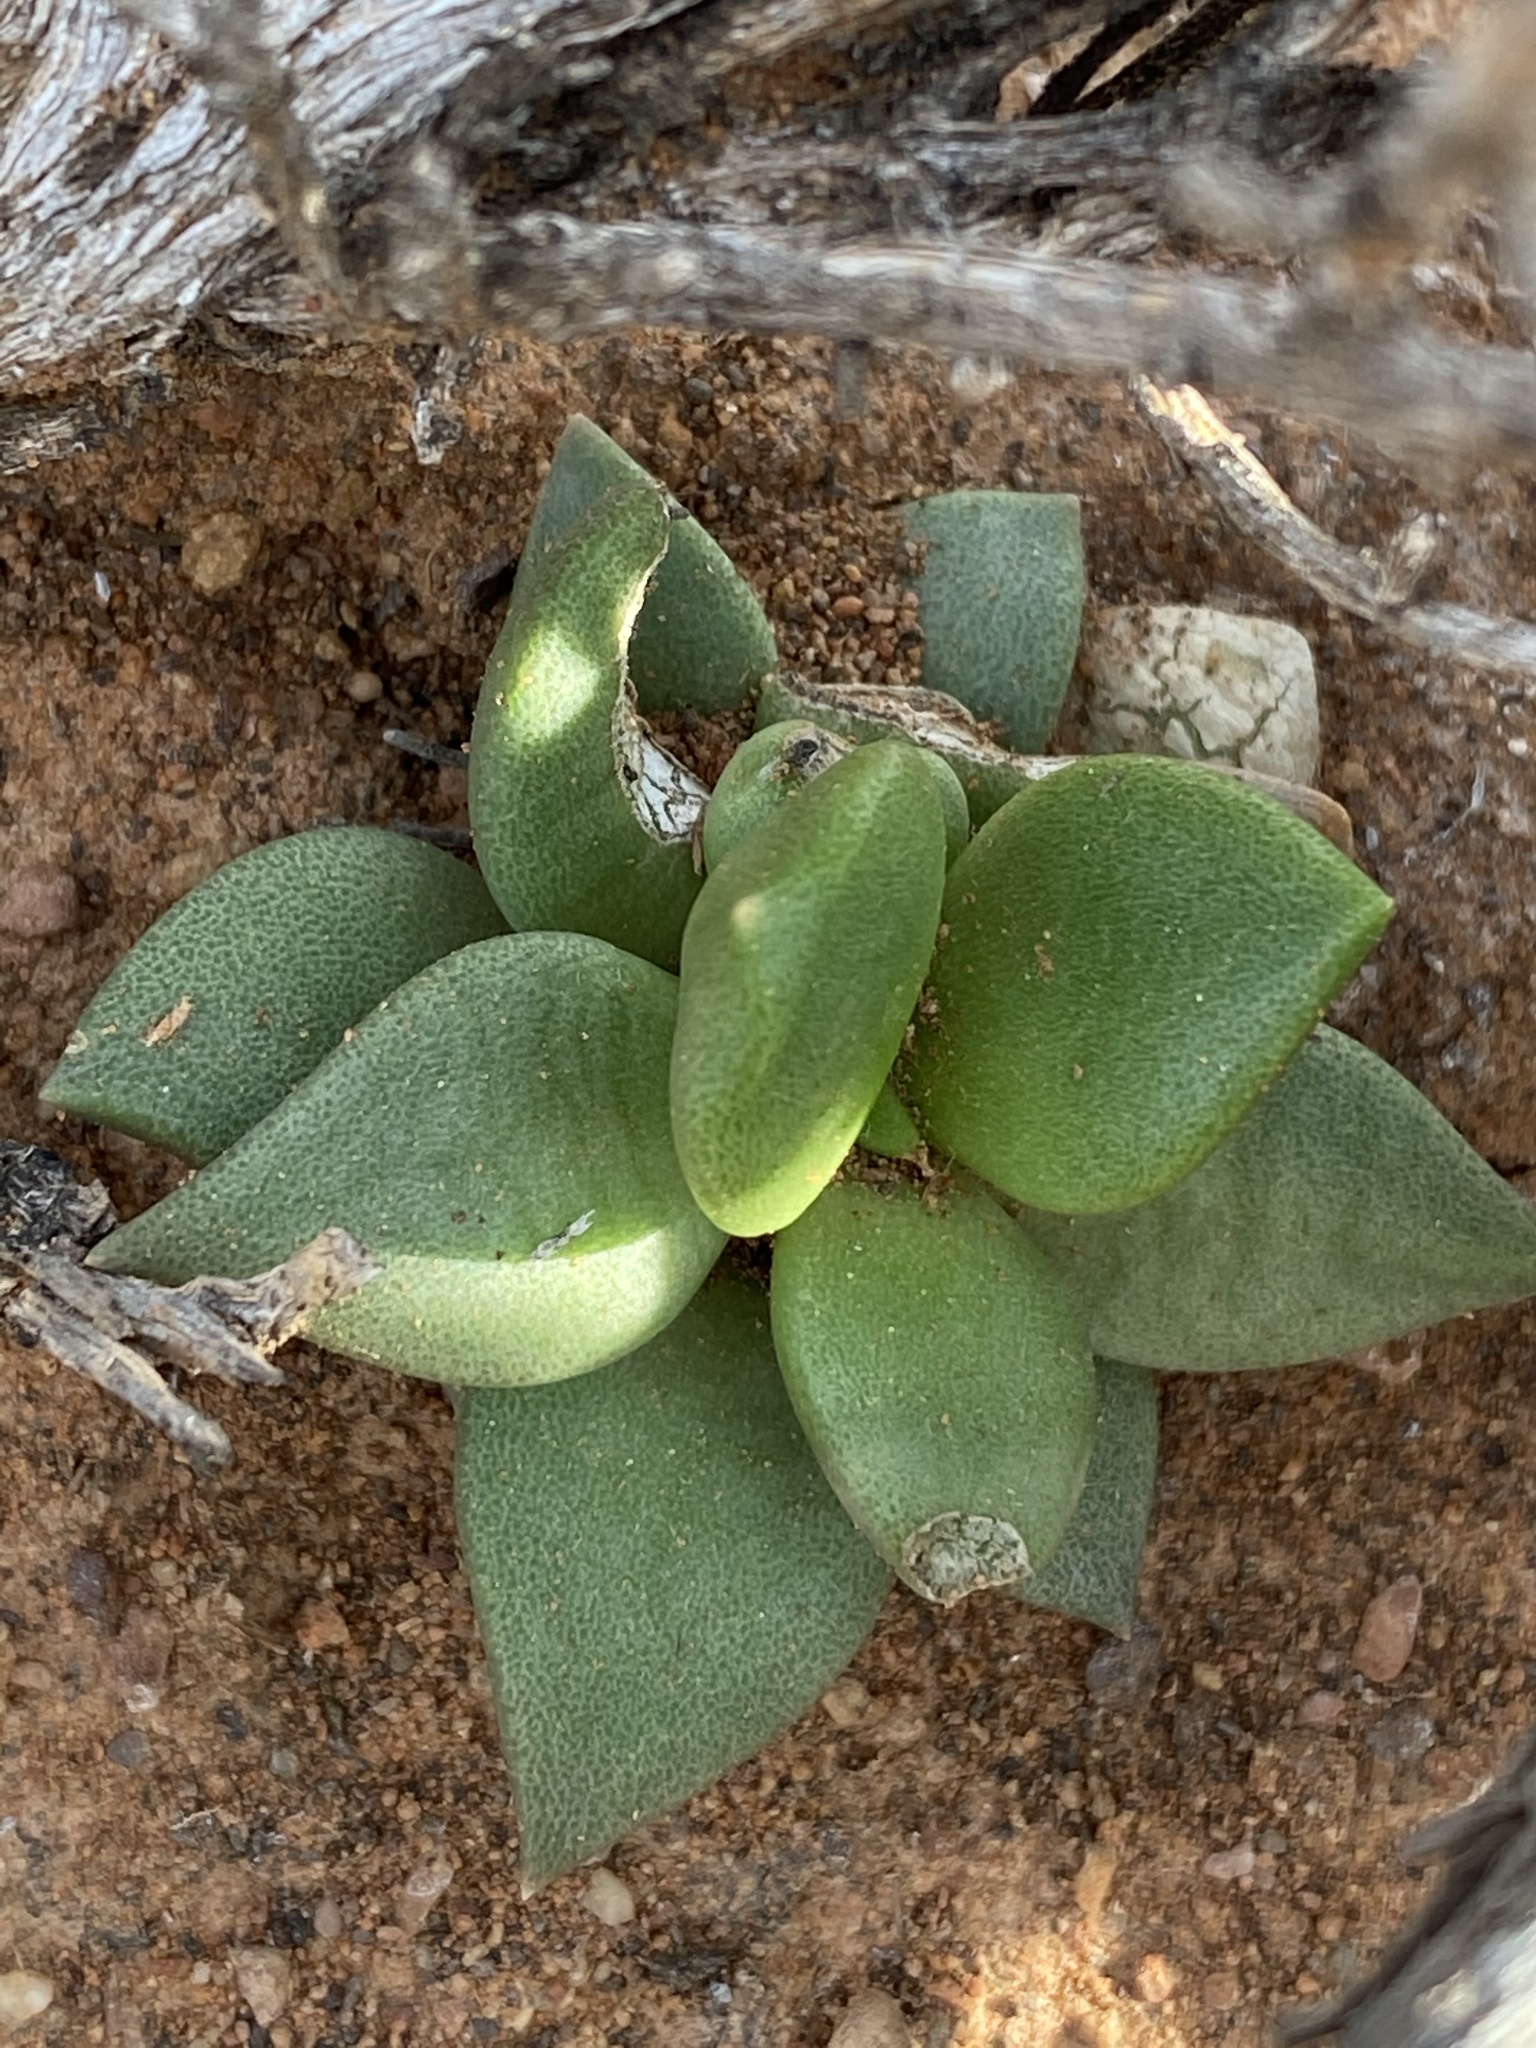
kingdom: Plantae
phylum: Tracheophyta
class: Magnoliopsida
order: Caryophyllales
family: Anacampserotaceae
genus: Anacampseros
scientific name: Anacampseros telephiastrum
